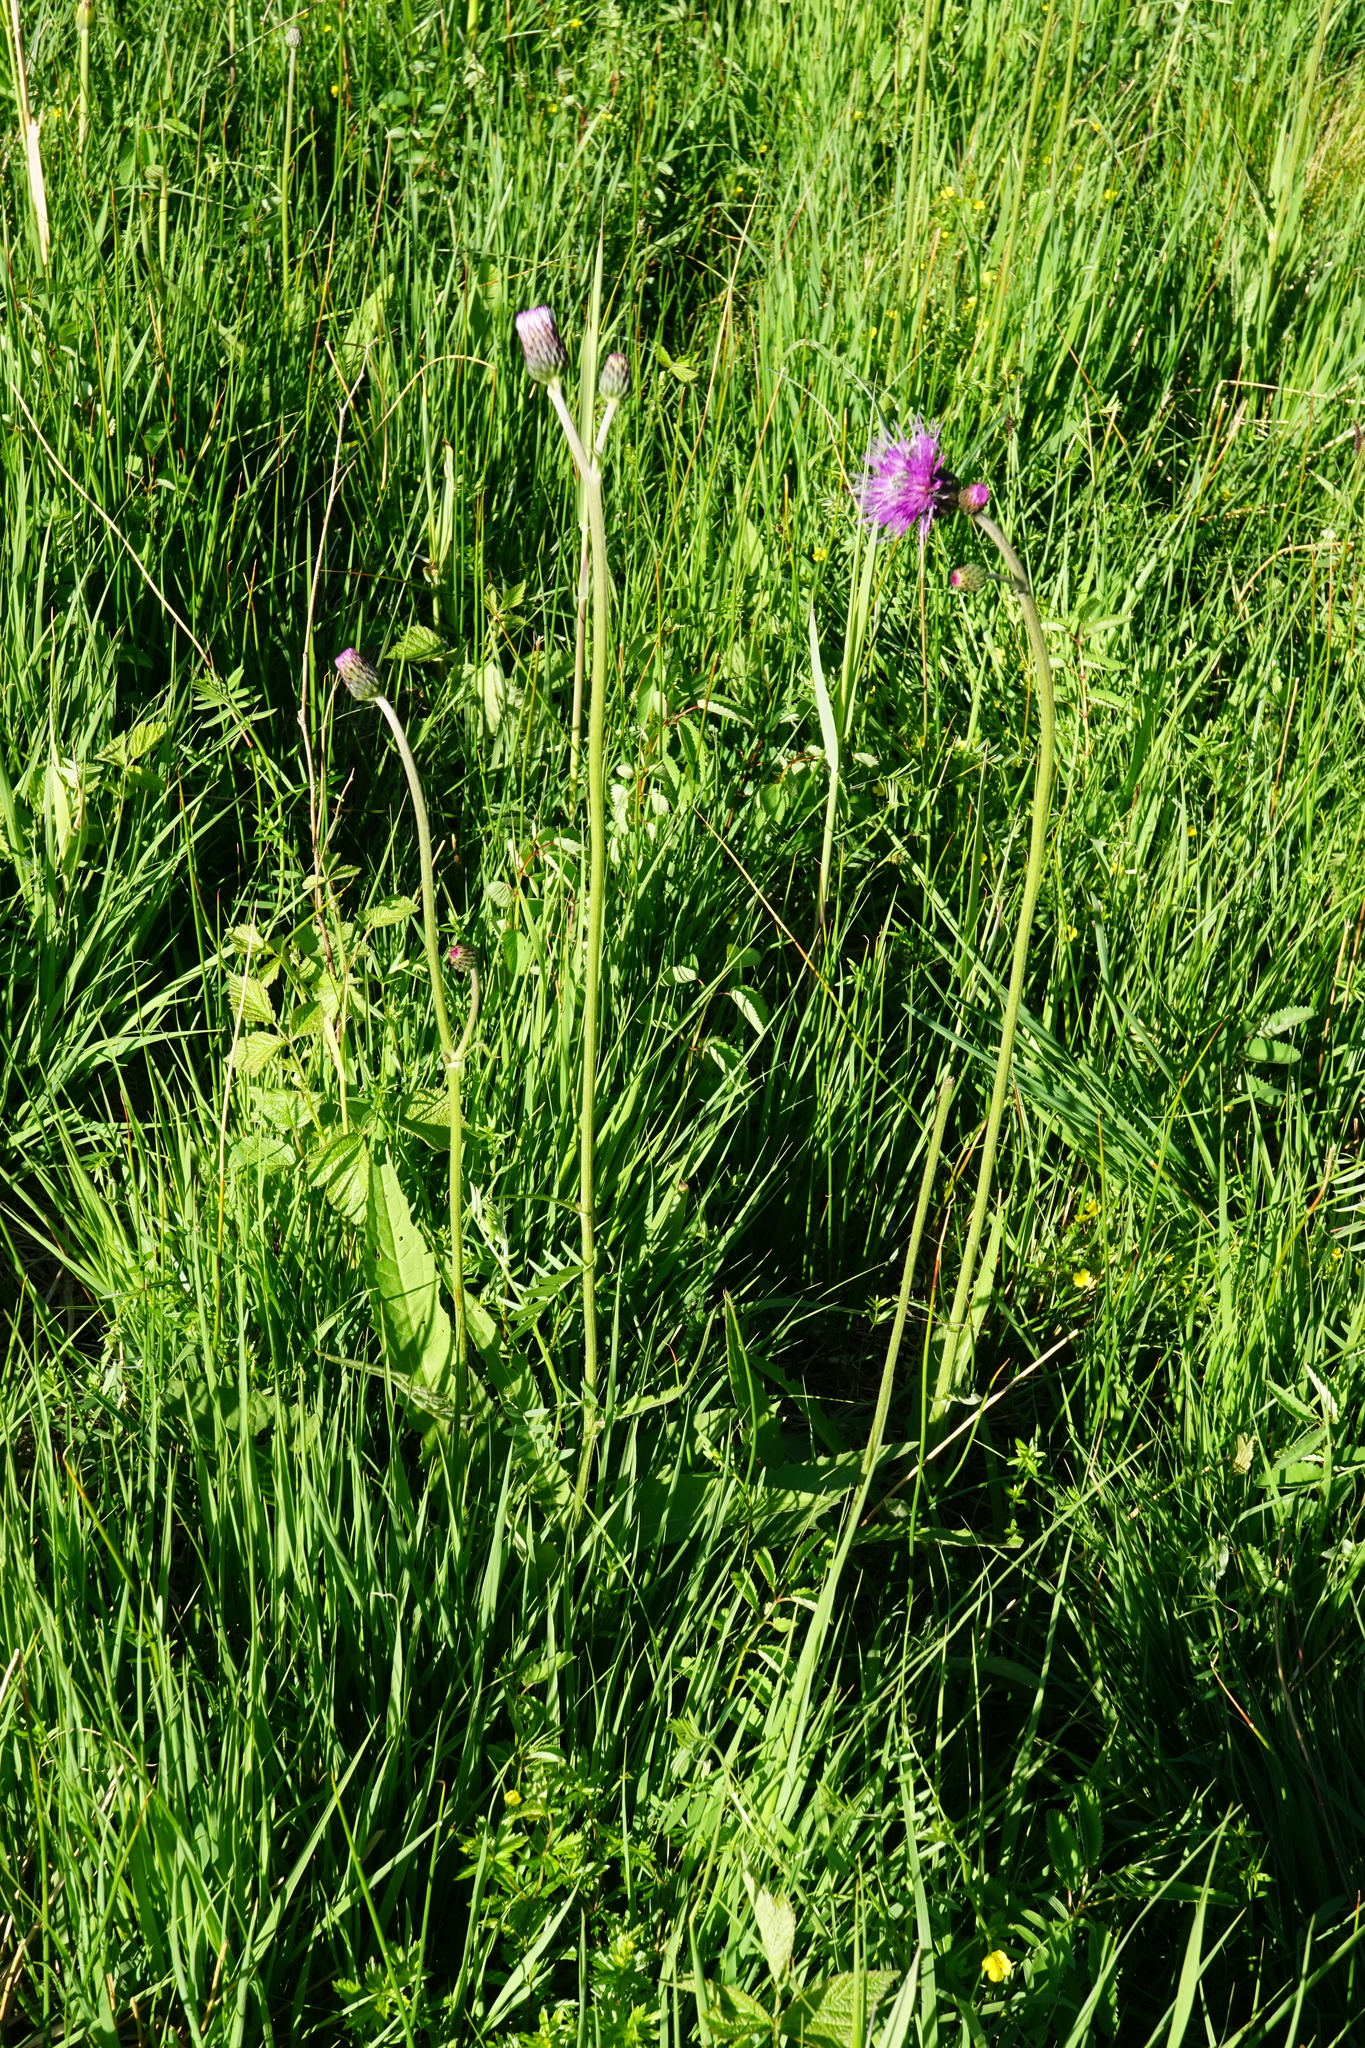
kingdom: Plantae
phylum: Tracheophyta
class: Magnoliopsida
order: Asterales
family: Asteraceae
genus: Cirsium
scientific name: Cirsium rivulare
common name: Brook thistle
